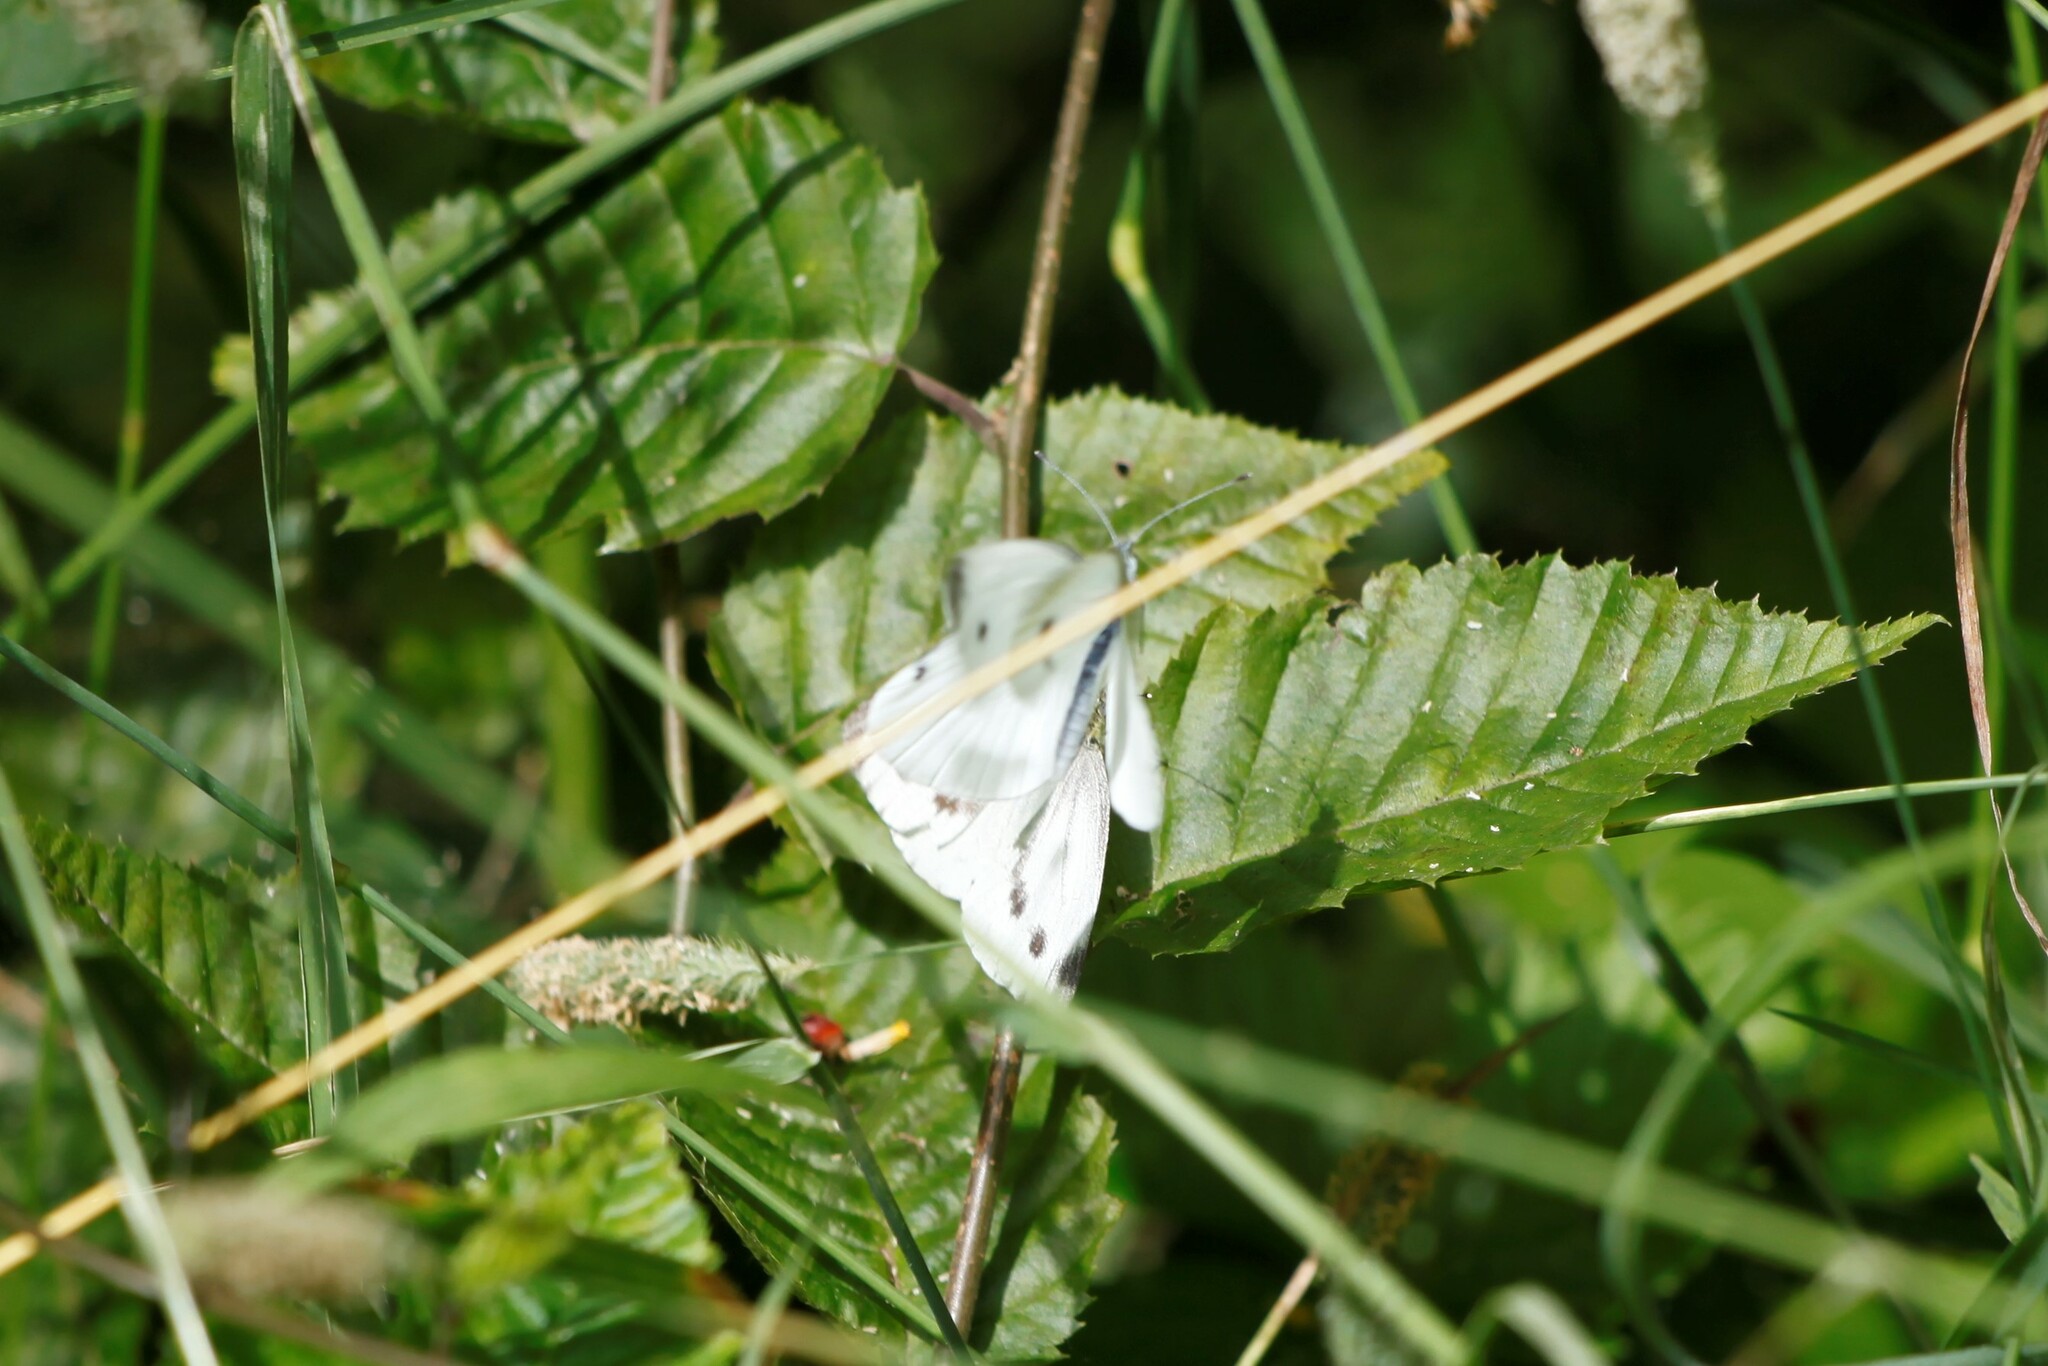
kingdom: Animalia
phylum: Arthropoda
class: Insecta
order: Lepidoptera
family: Pieridae
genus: Pieris
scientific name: Pieris napi
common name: Green-veined white
